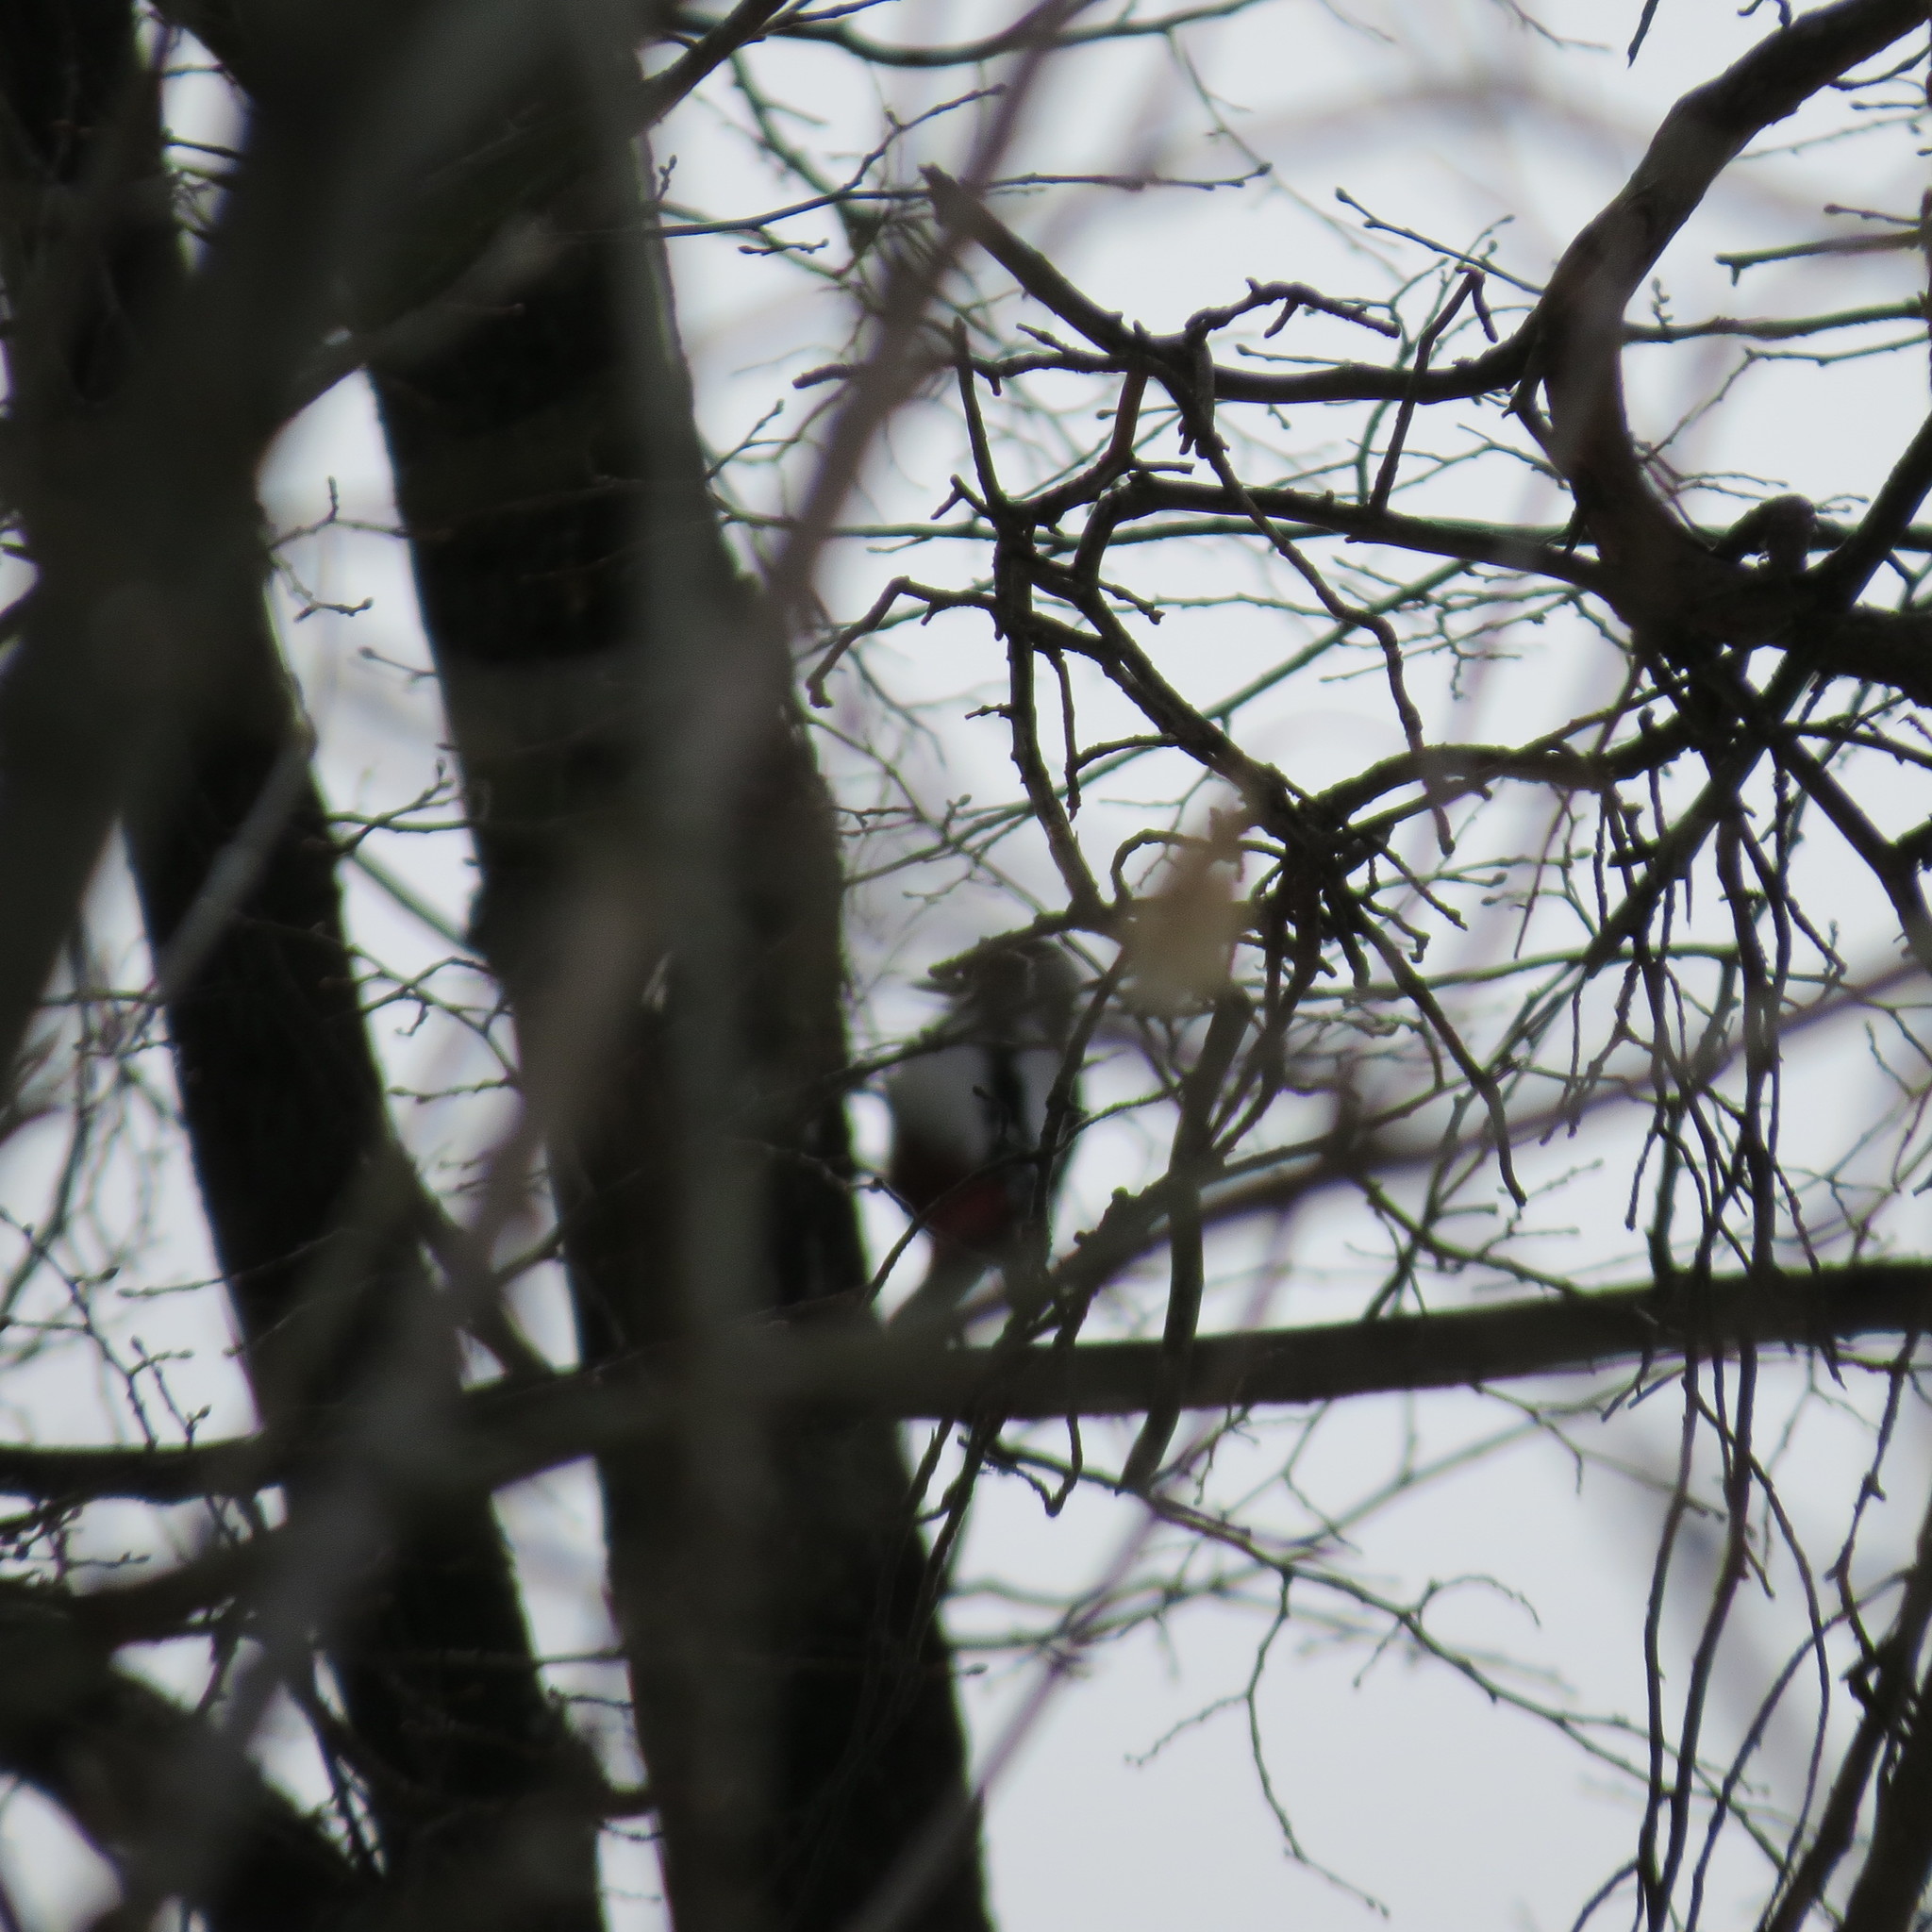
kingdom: Animalia
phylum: Chordata
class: Aves
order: Piciformes
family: Picidae
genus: Dendrocopos
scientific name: Dendrocopos major
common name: Great spotted woodpecker
